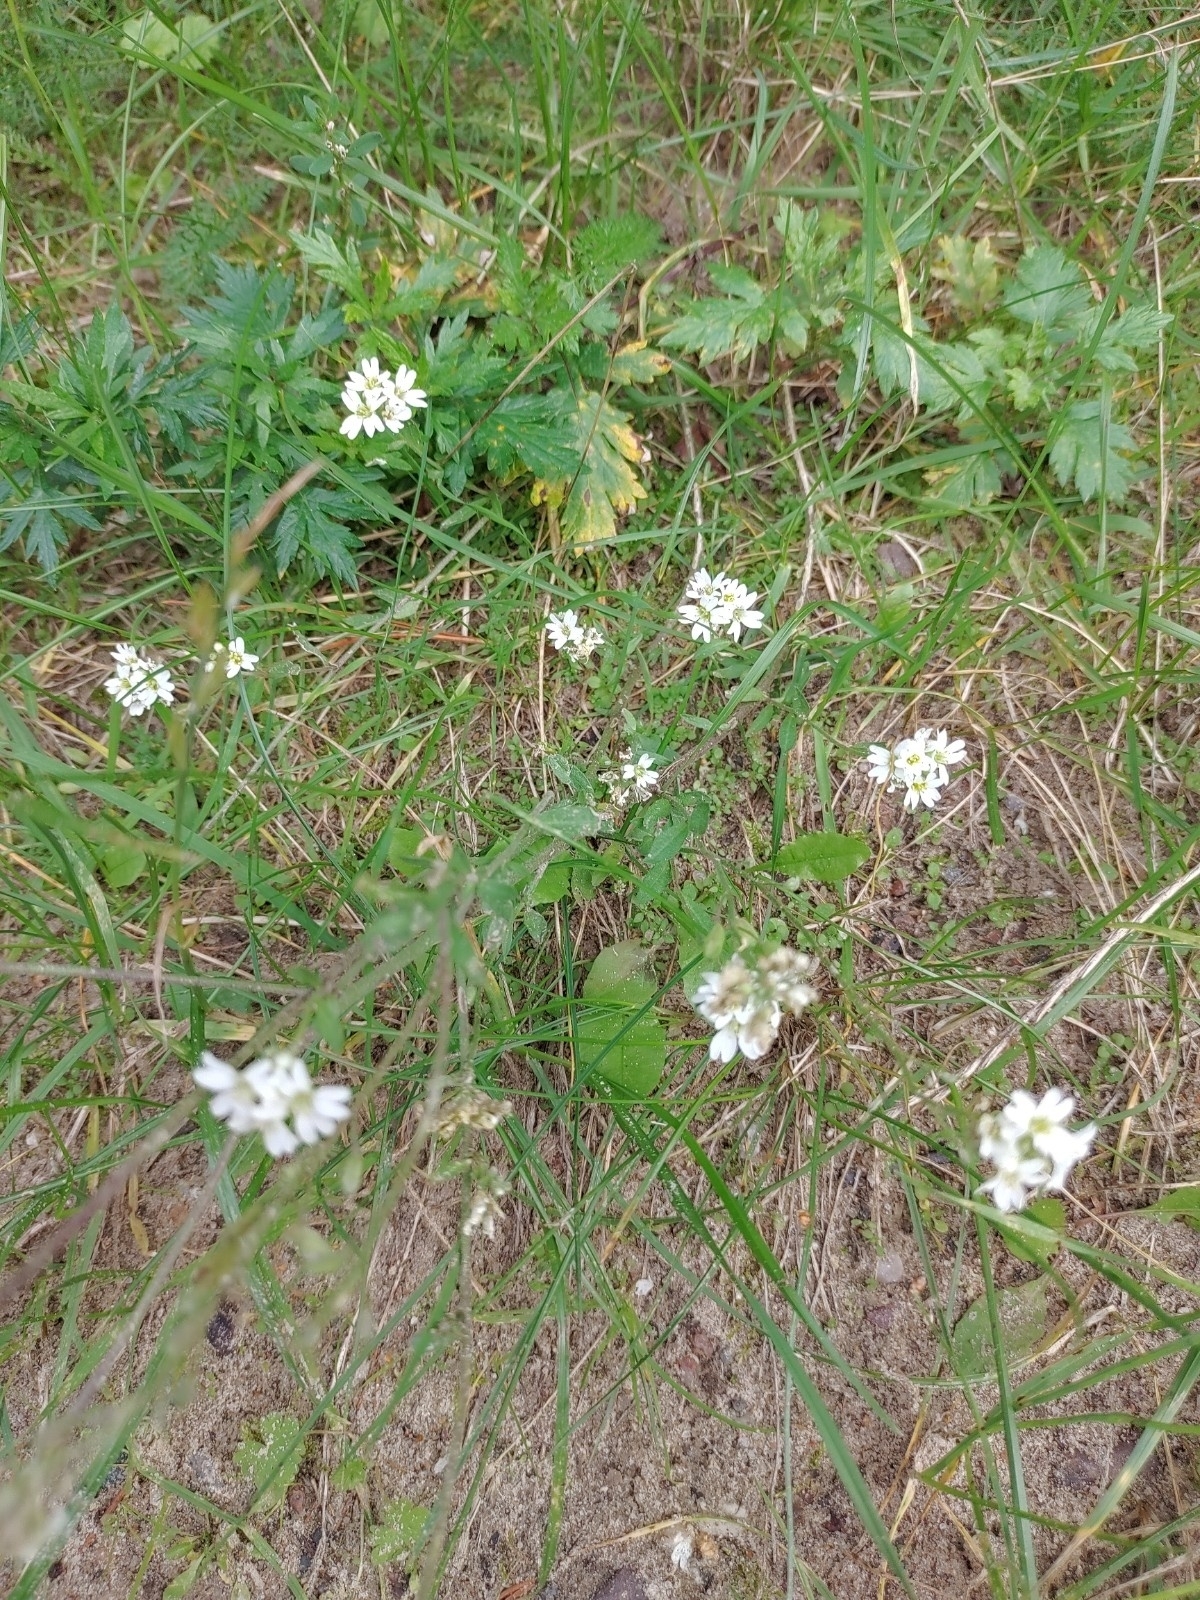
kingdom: Plantae
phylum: Tracheophyta
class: Magnoliopsida
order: Brassicales
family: Brassicaceae
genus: Berteroa
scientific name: Berteroa incana
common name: Hoary alison
